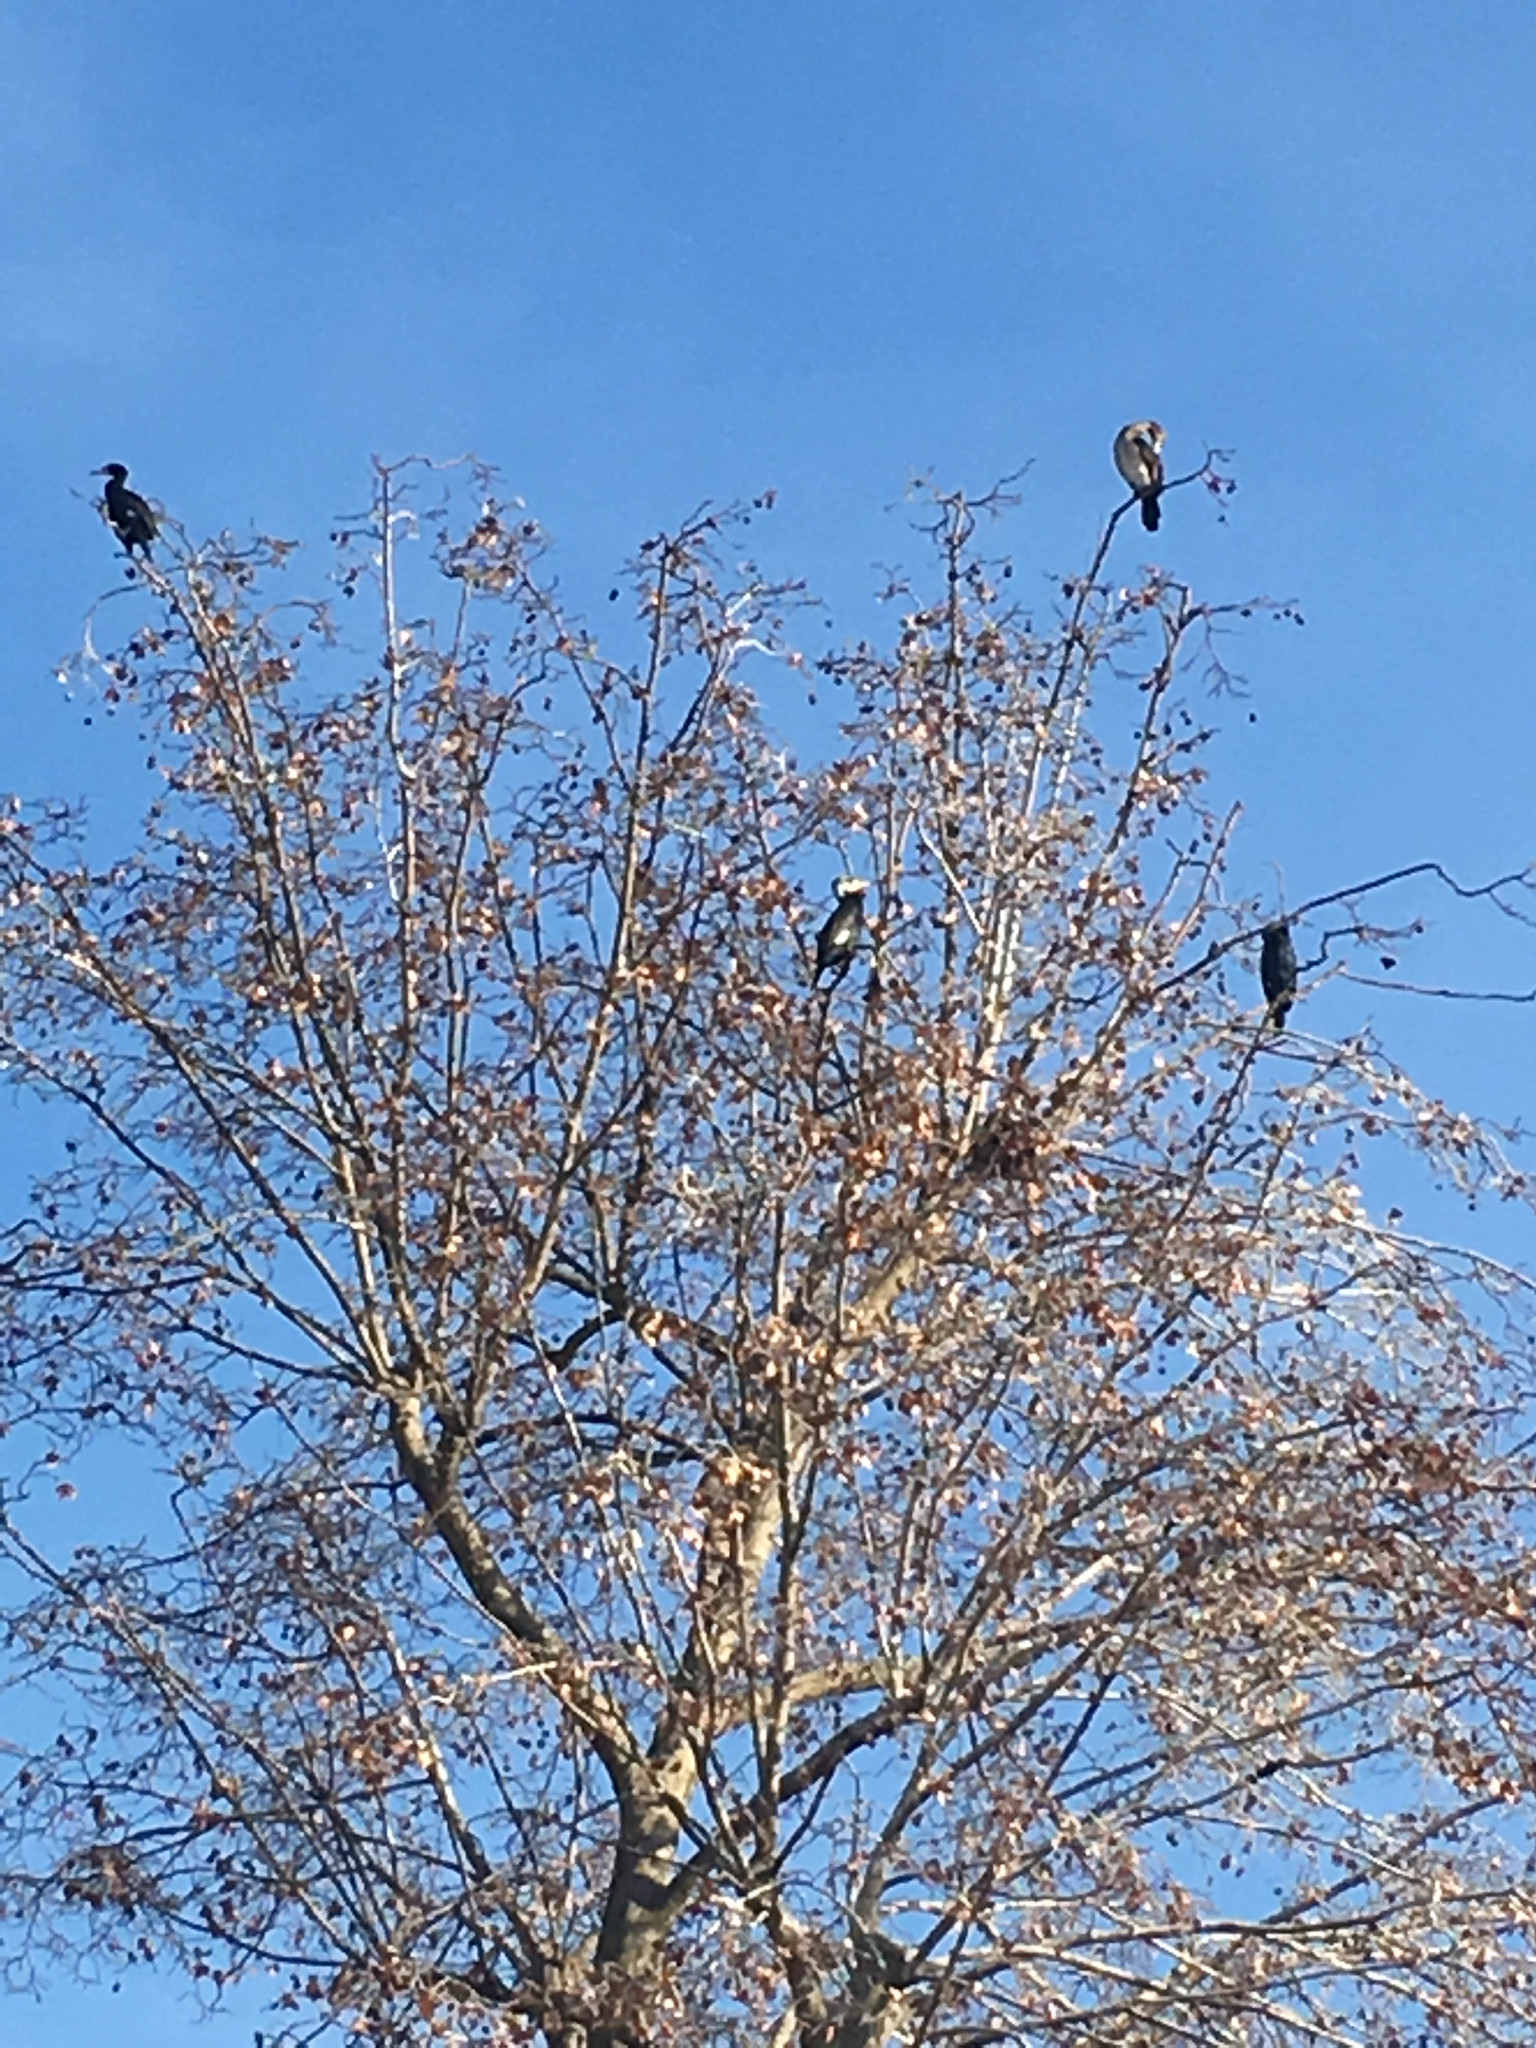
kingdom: Animalia
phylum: Chordata
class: Aves
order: Suliformes
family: Phalacrocoracidae
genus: Phalacrocorax
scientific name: Phalacrocorax carbo
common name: Great cormorant
